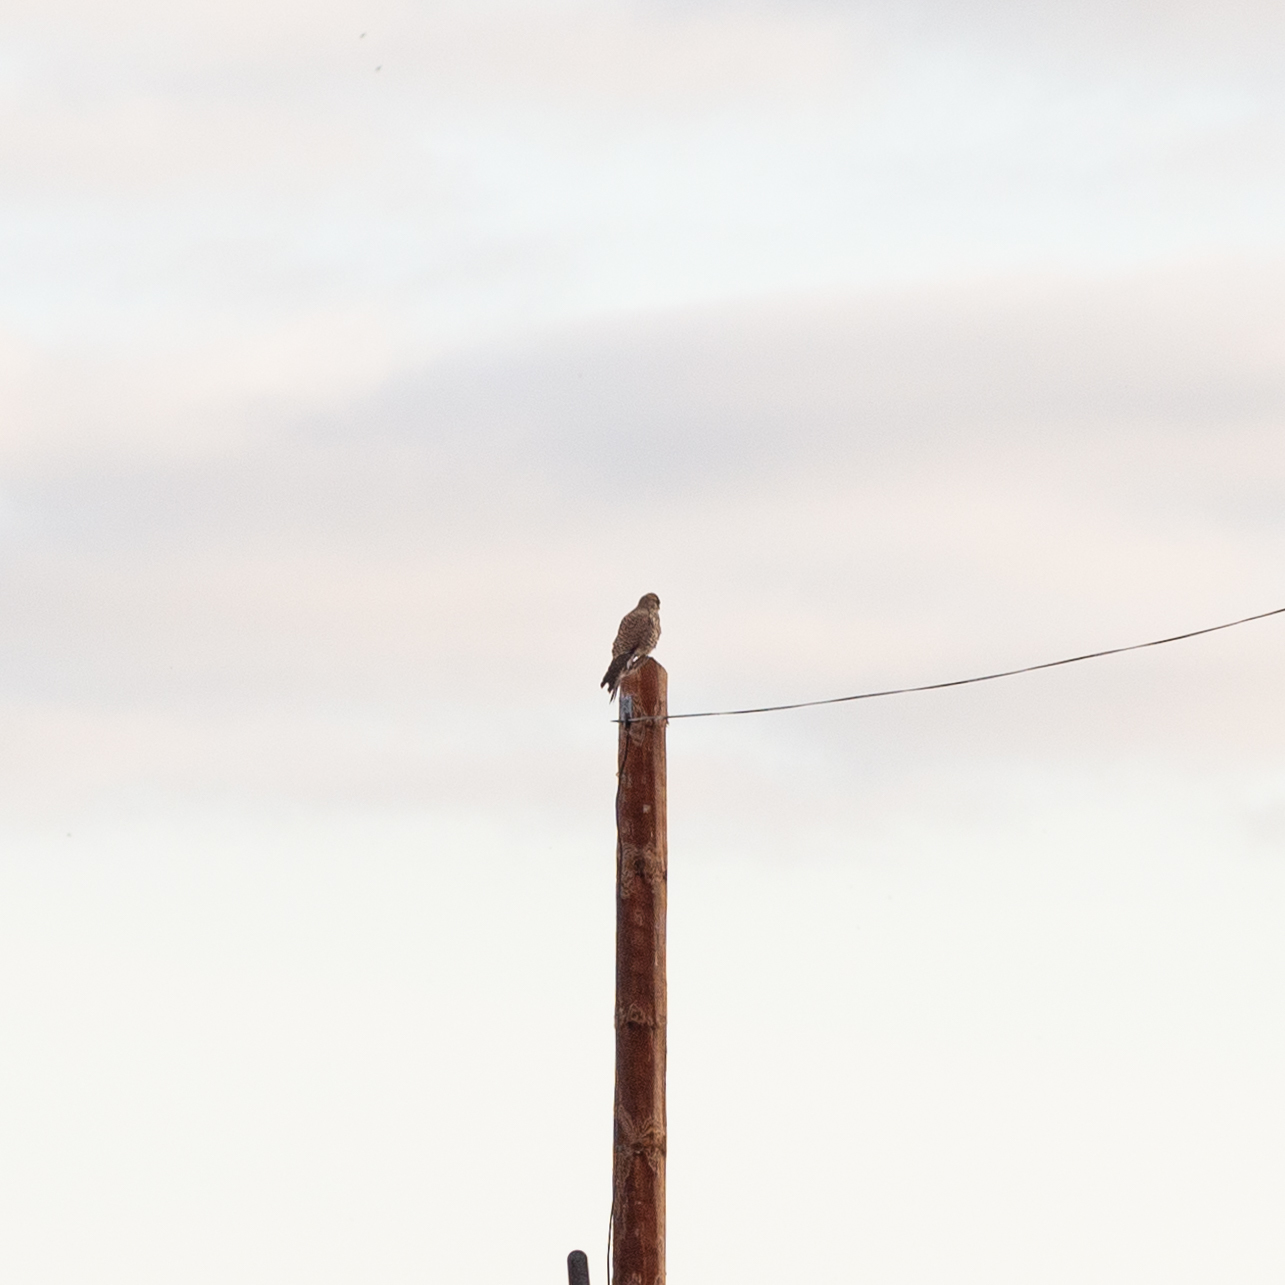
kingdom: Animalia
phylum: Chordata
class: Aves
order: Falconiformes
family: Falconidae
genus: Falco
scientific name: Falco tinnunculus
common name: Common kestrel
